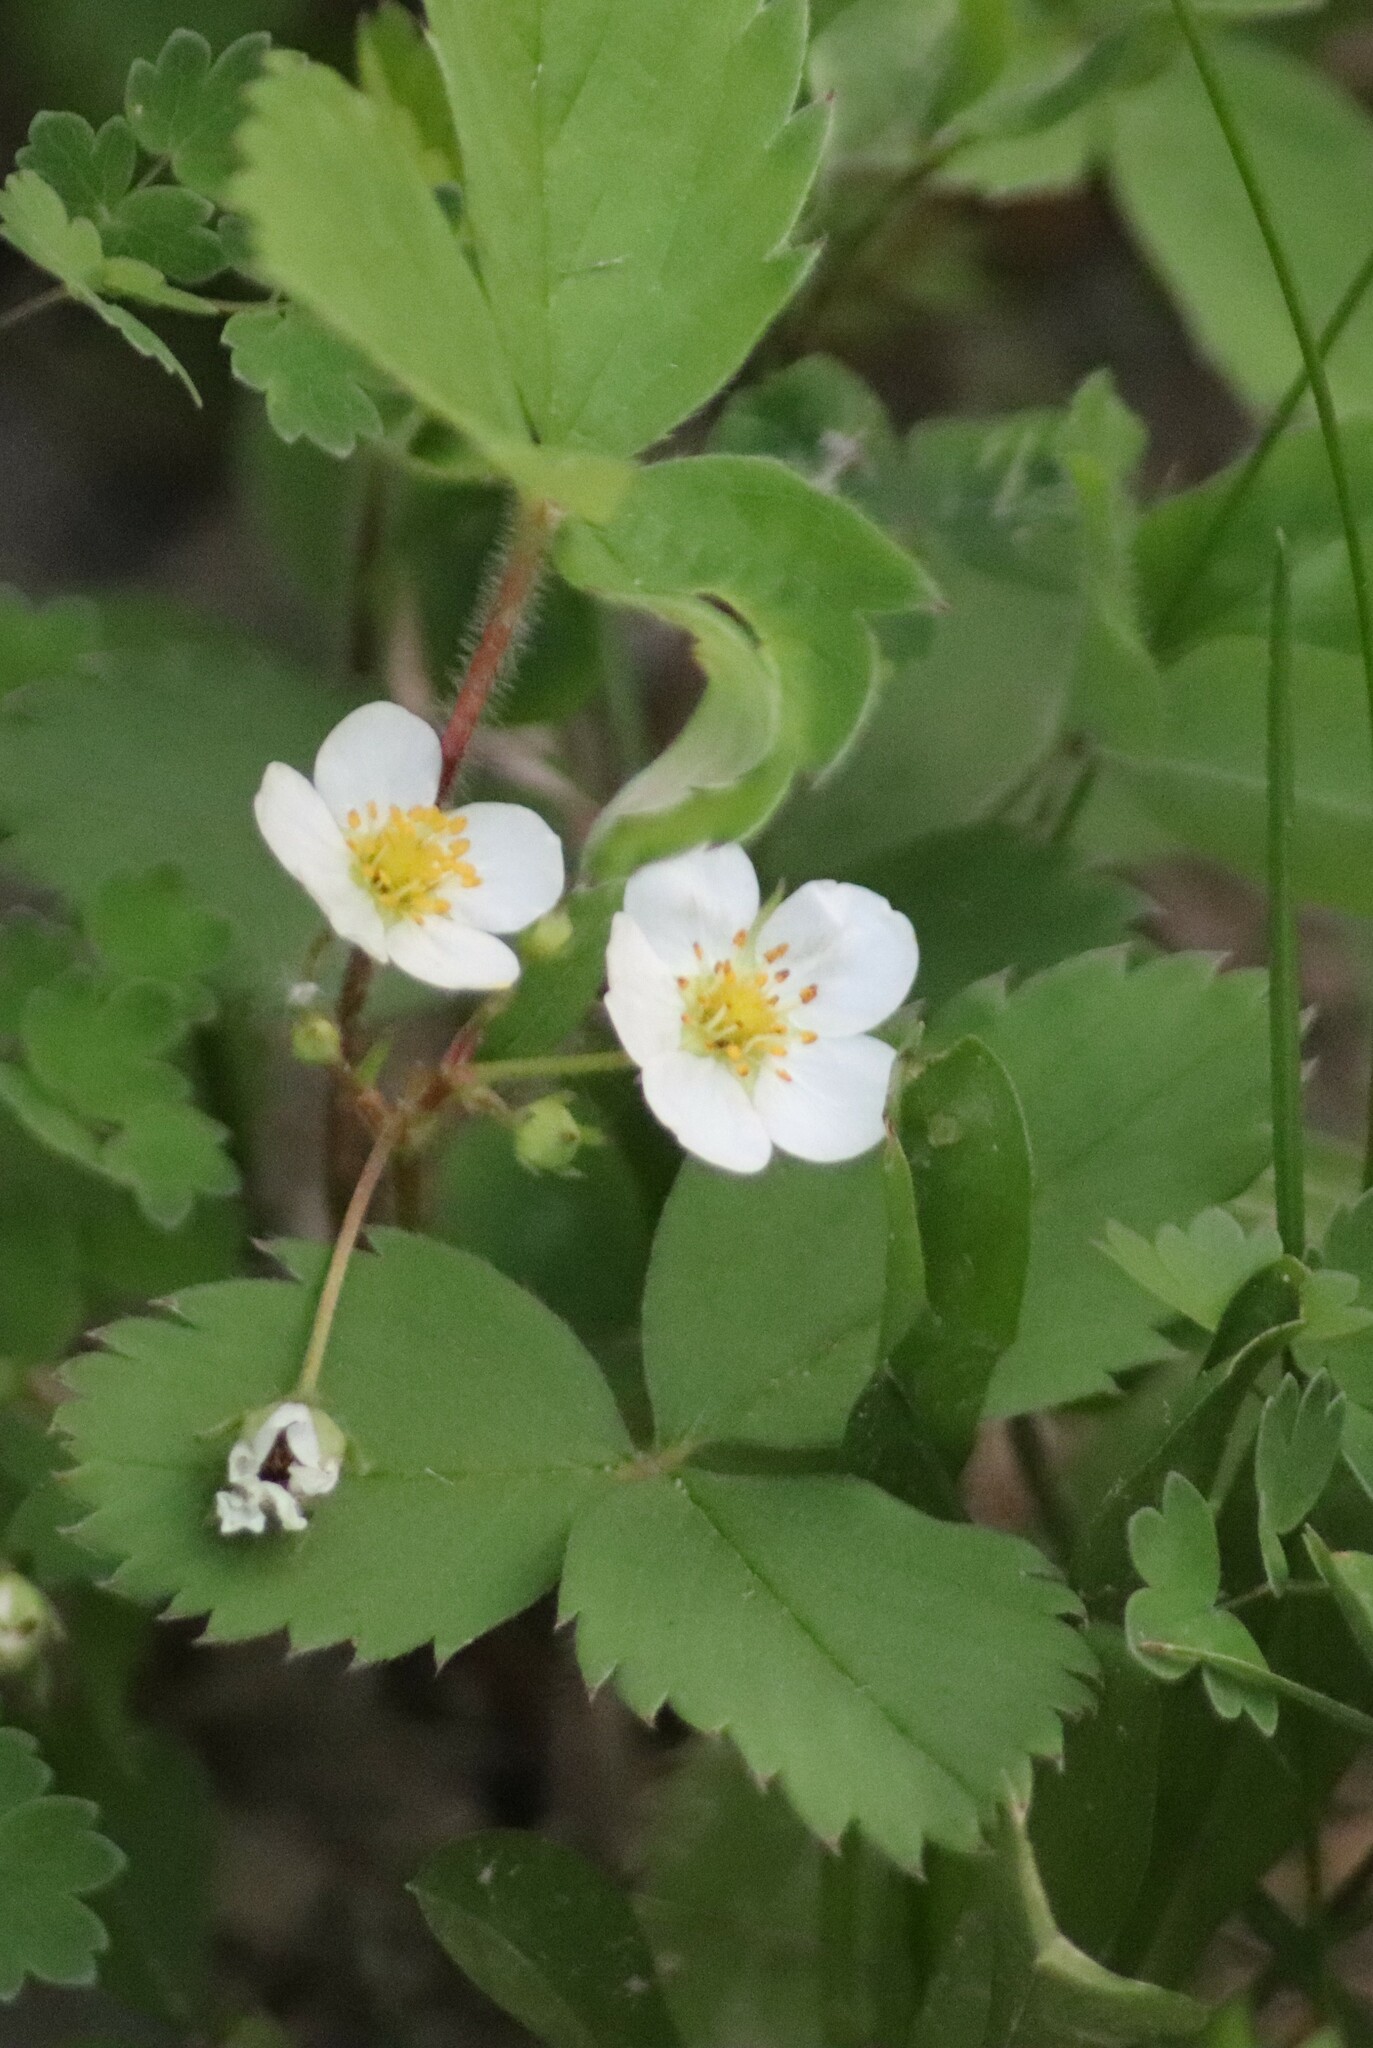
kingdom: Plantae
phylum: Tracheophyta
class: Magnoliopsida
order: Rosales
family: Rosaceae
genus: Fragaria
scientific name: Fragaria virginiana
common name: Thickleaved wild strawberry
